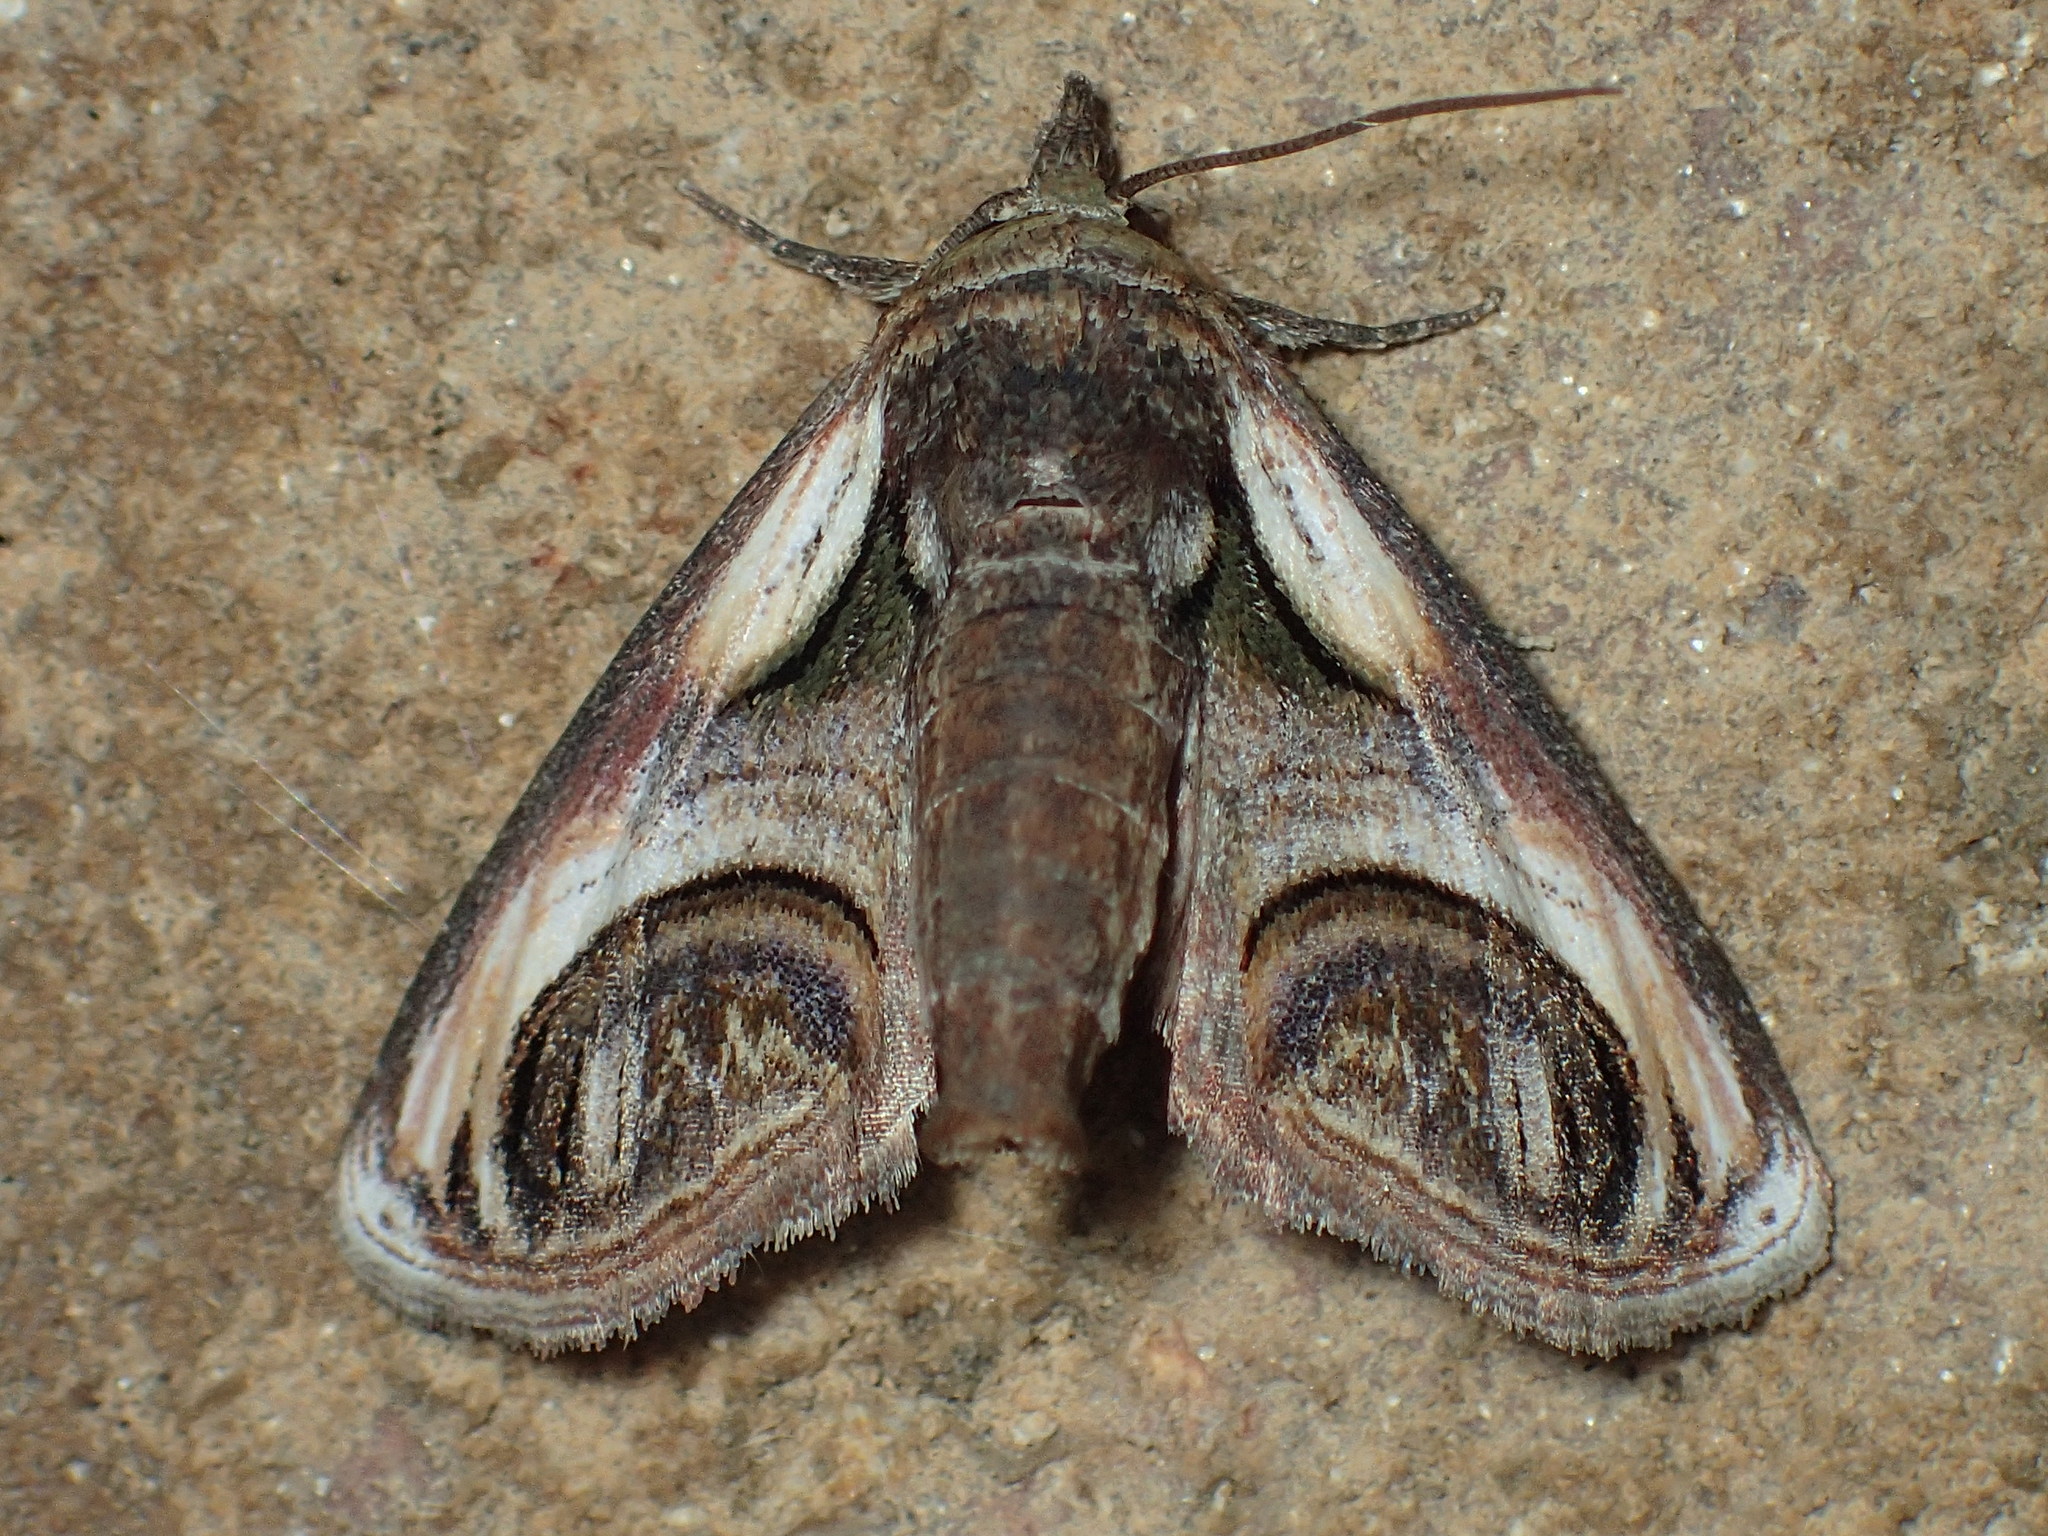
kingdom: Animalia
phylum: Arthropoda
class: Insecta
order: Lepidoptera
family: Euteliidae
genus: Paectes
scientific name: Paectes oculatrix
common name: Eyed paectes moth
